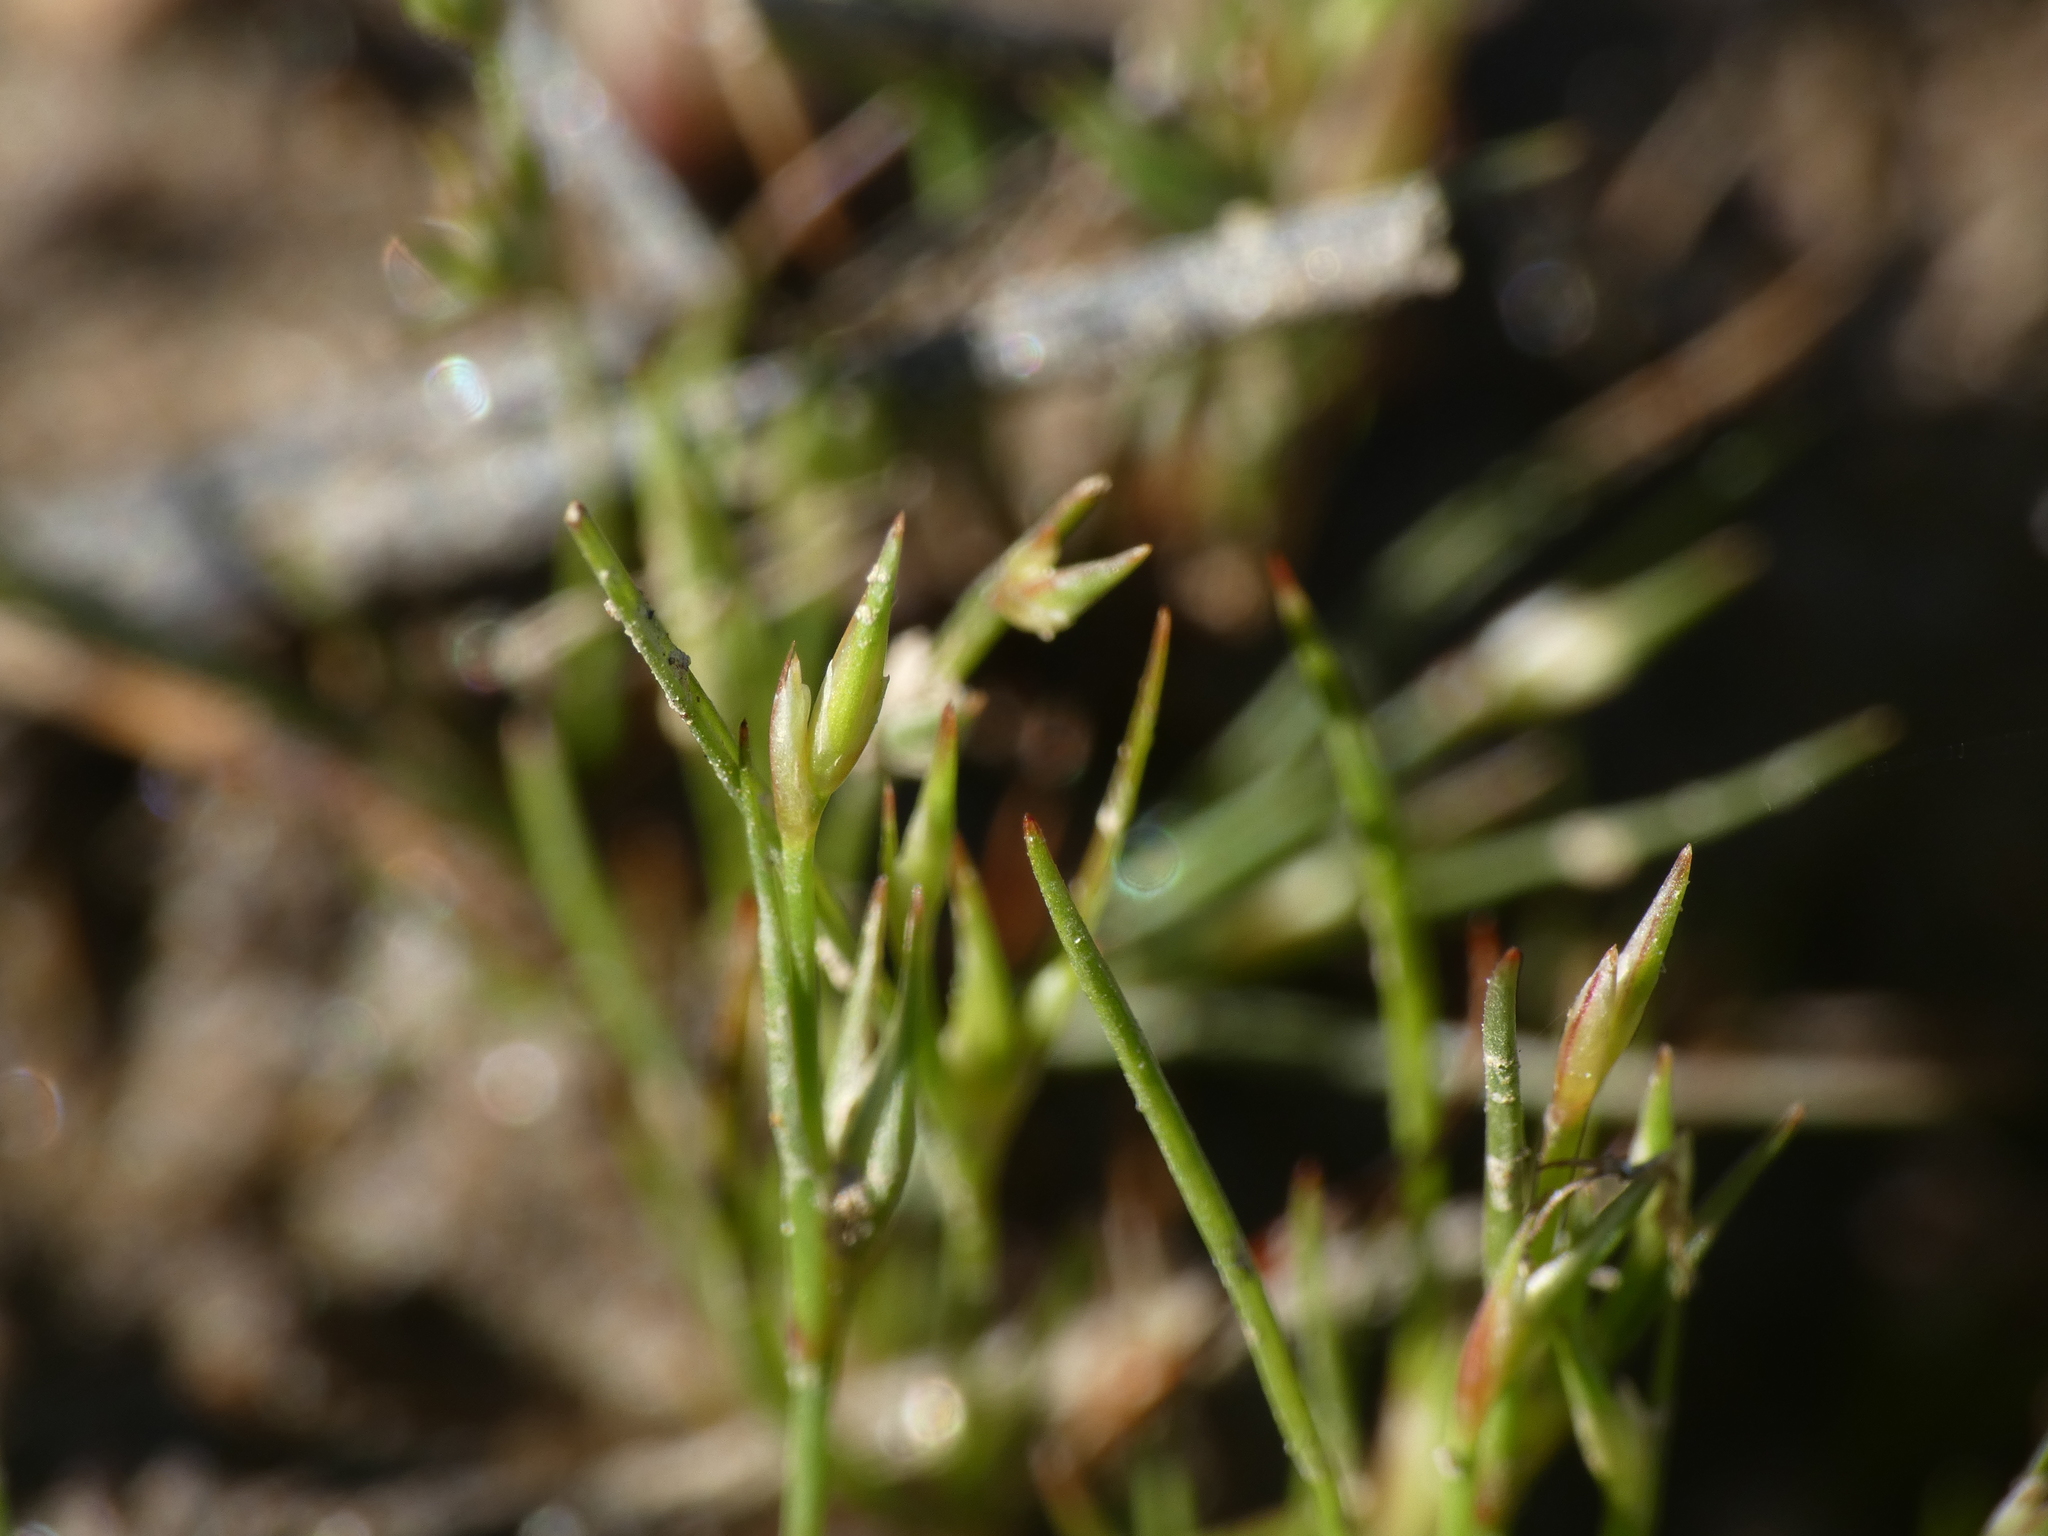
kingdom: Plantae
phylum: Tracheophyta
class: Liliopsida
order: Poales
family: Juncaceae
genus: Juncus
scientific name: Juncus bufonius
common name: Toad rush
